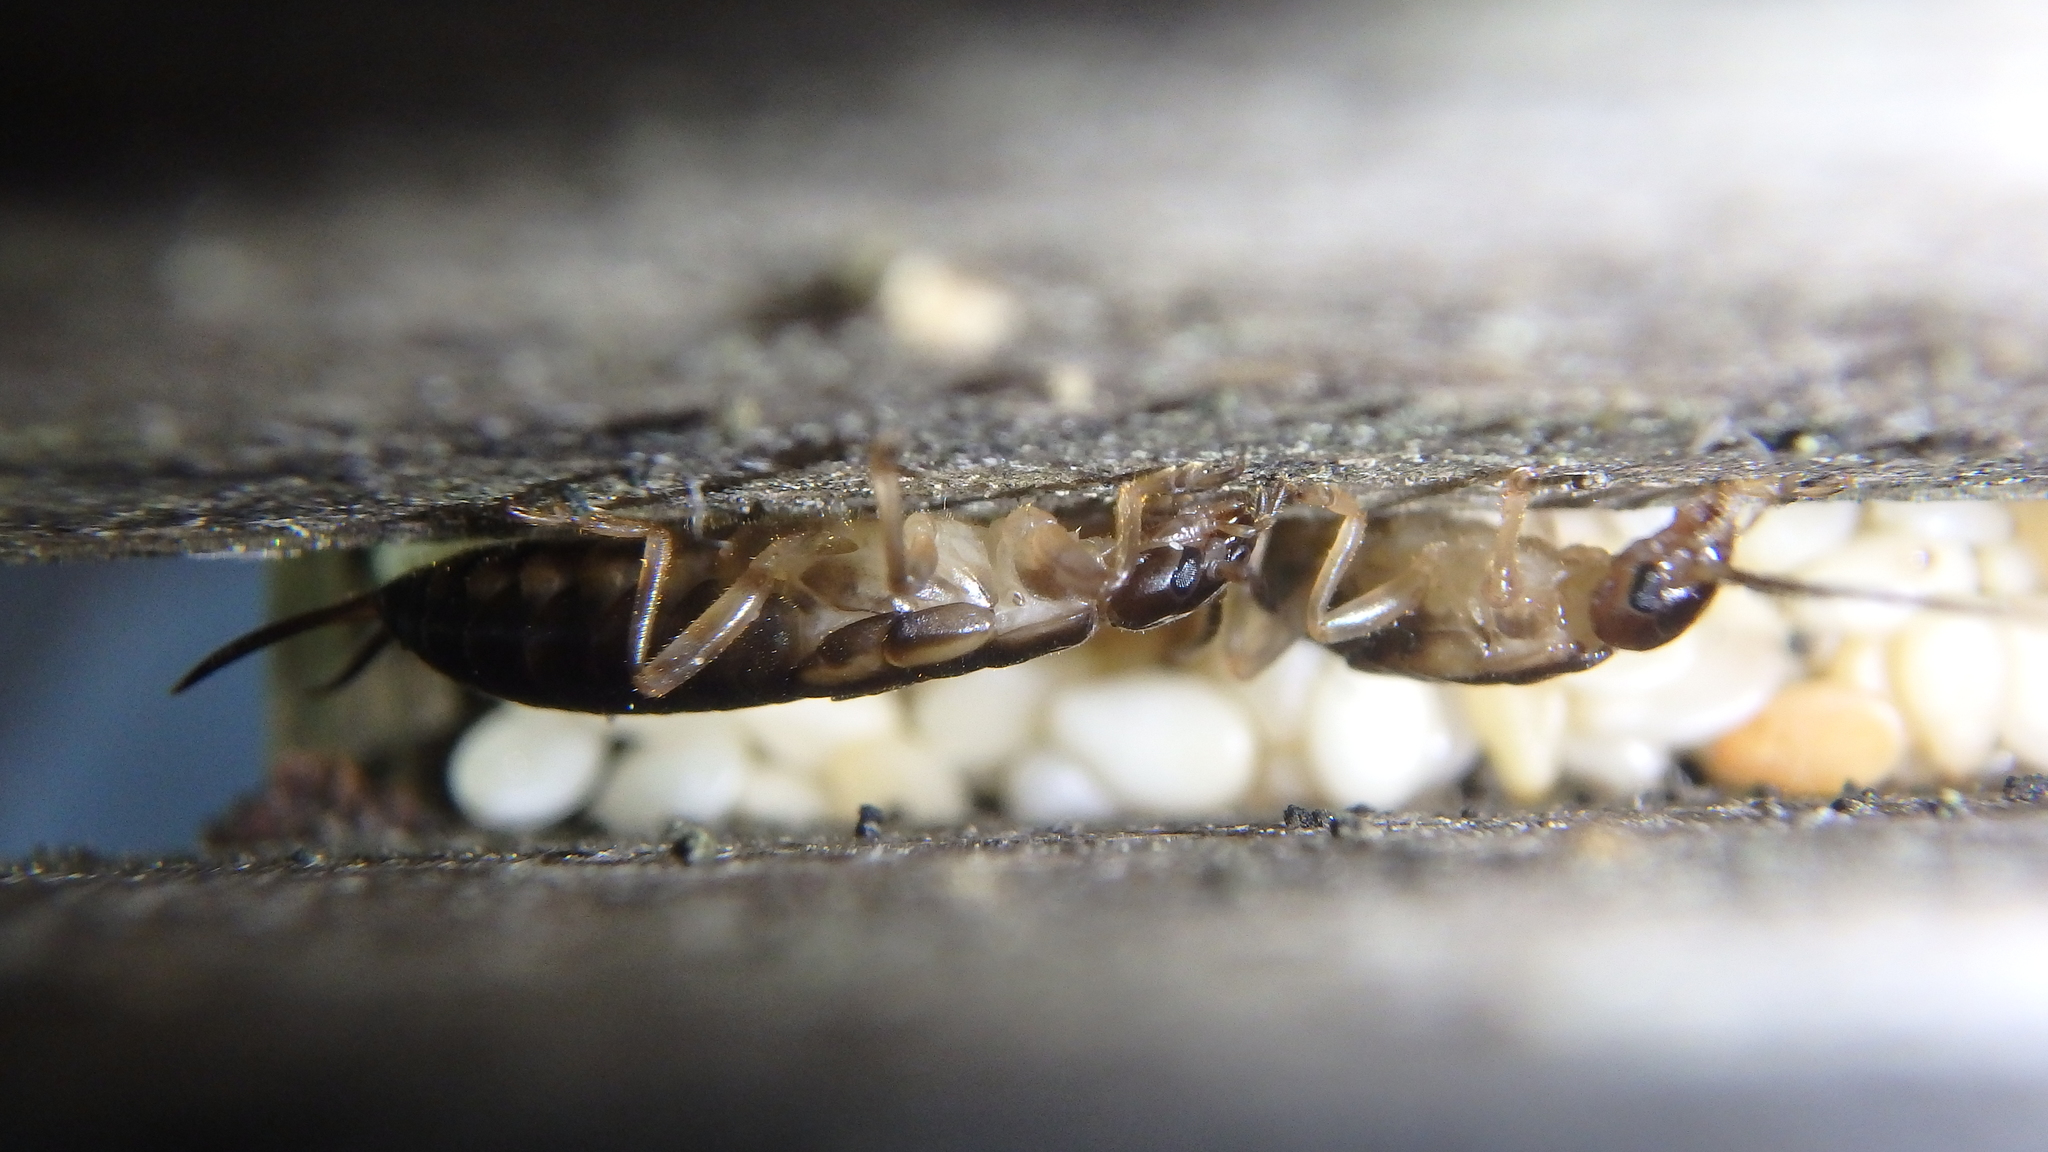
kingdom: Animalia
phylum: Arthropoda
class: Insecta
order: Dermaptera
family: Forficulidae
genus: Forficula
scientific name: Forficula
